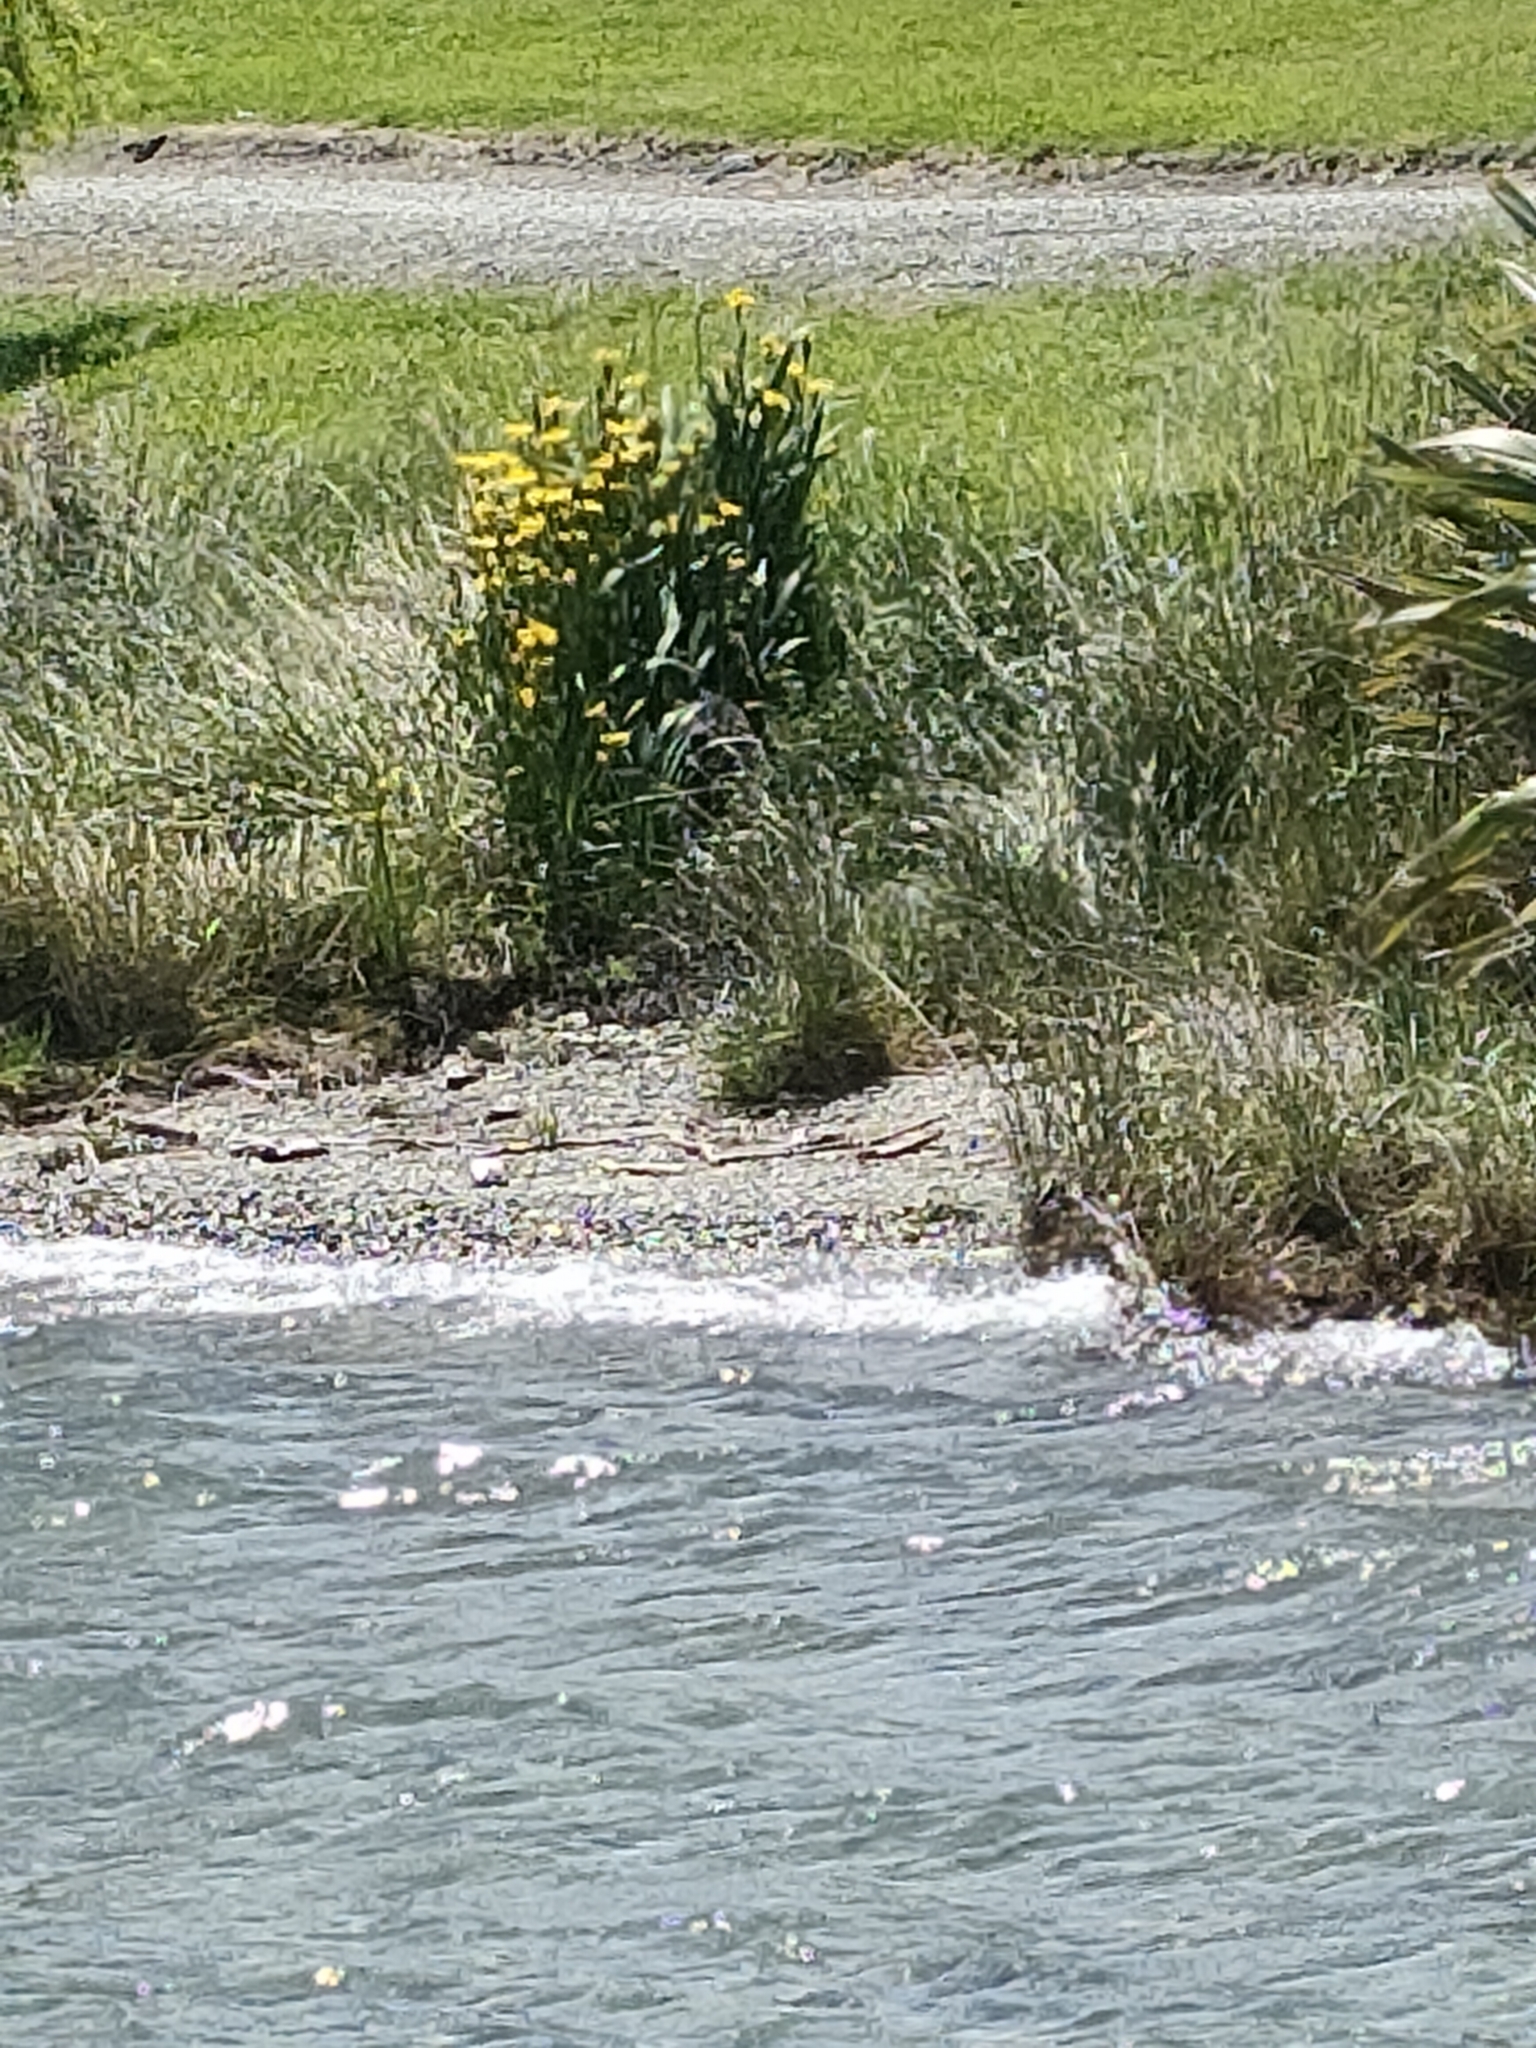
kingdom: Plantae
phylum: Tracheophyta
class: Liliopsida
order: Asparagales
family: Iridaceae
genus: Iris
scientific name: Iris pseudacorus
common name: Yellow flag
